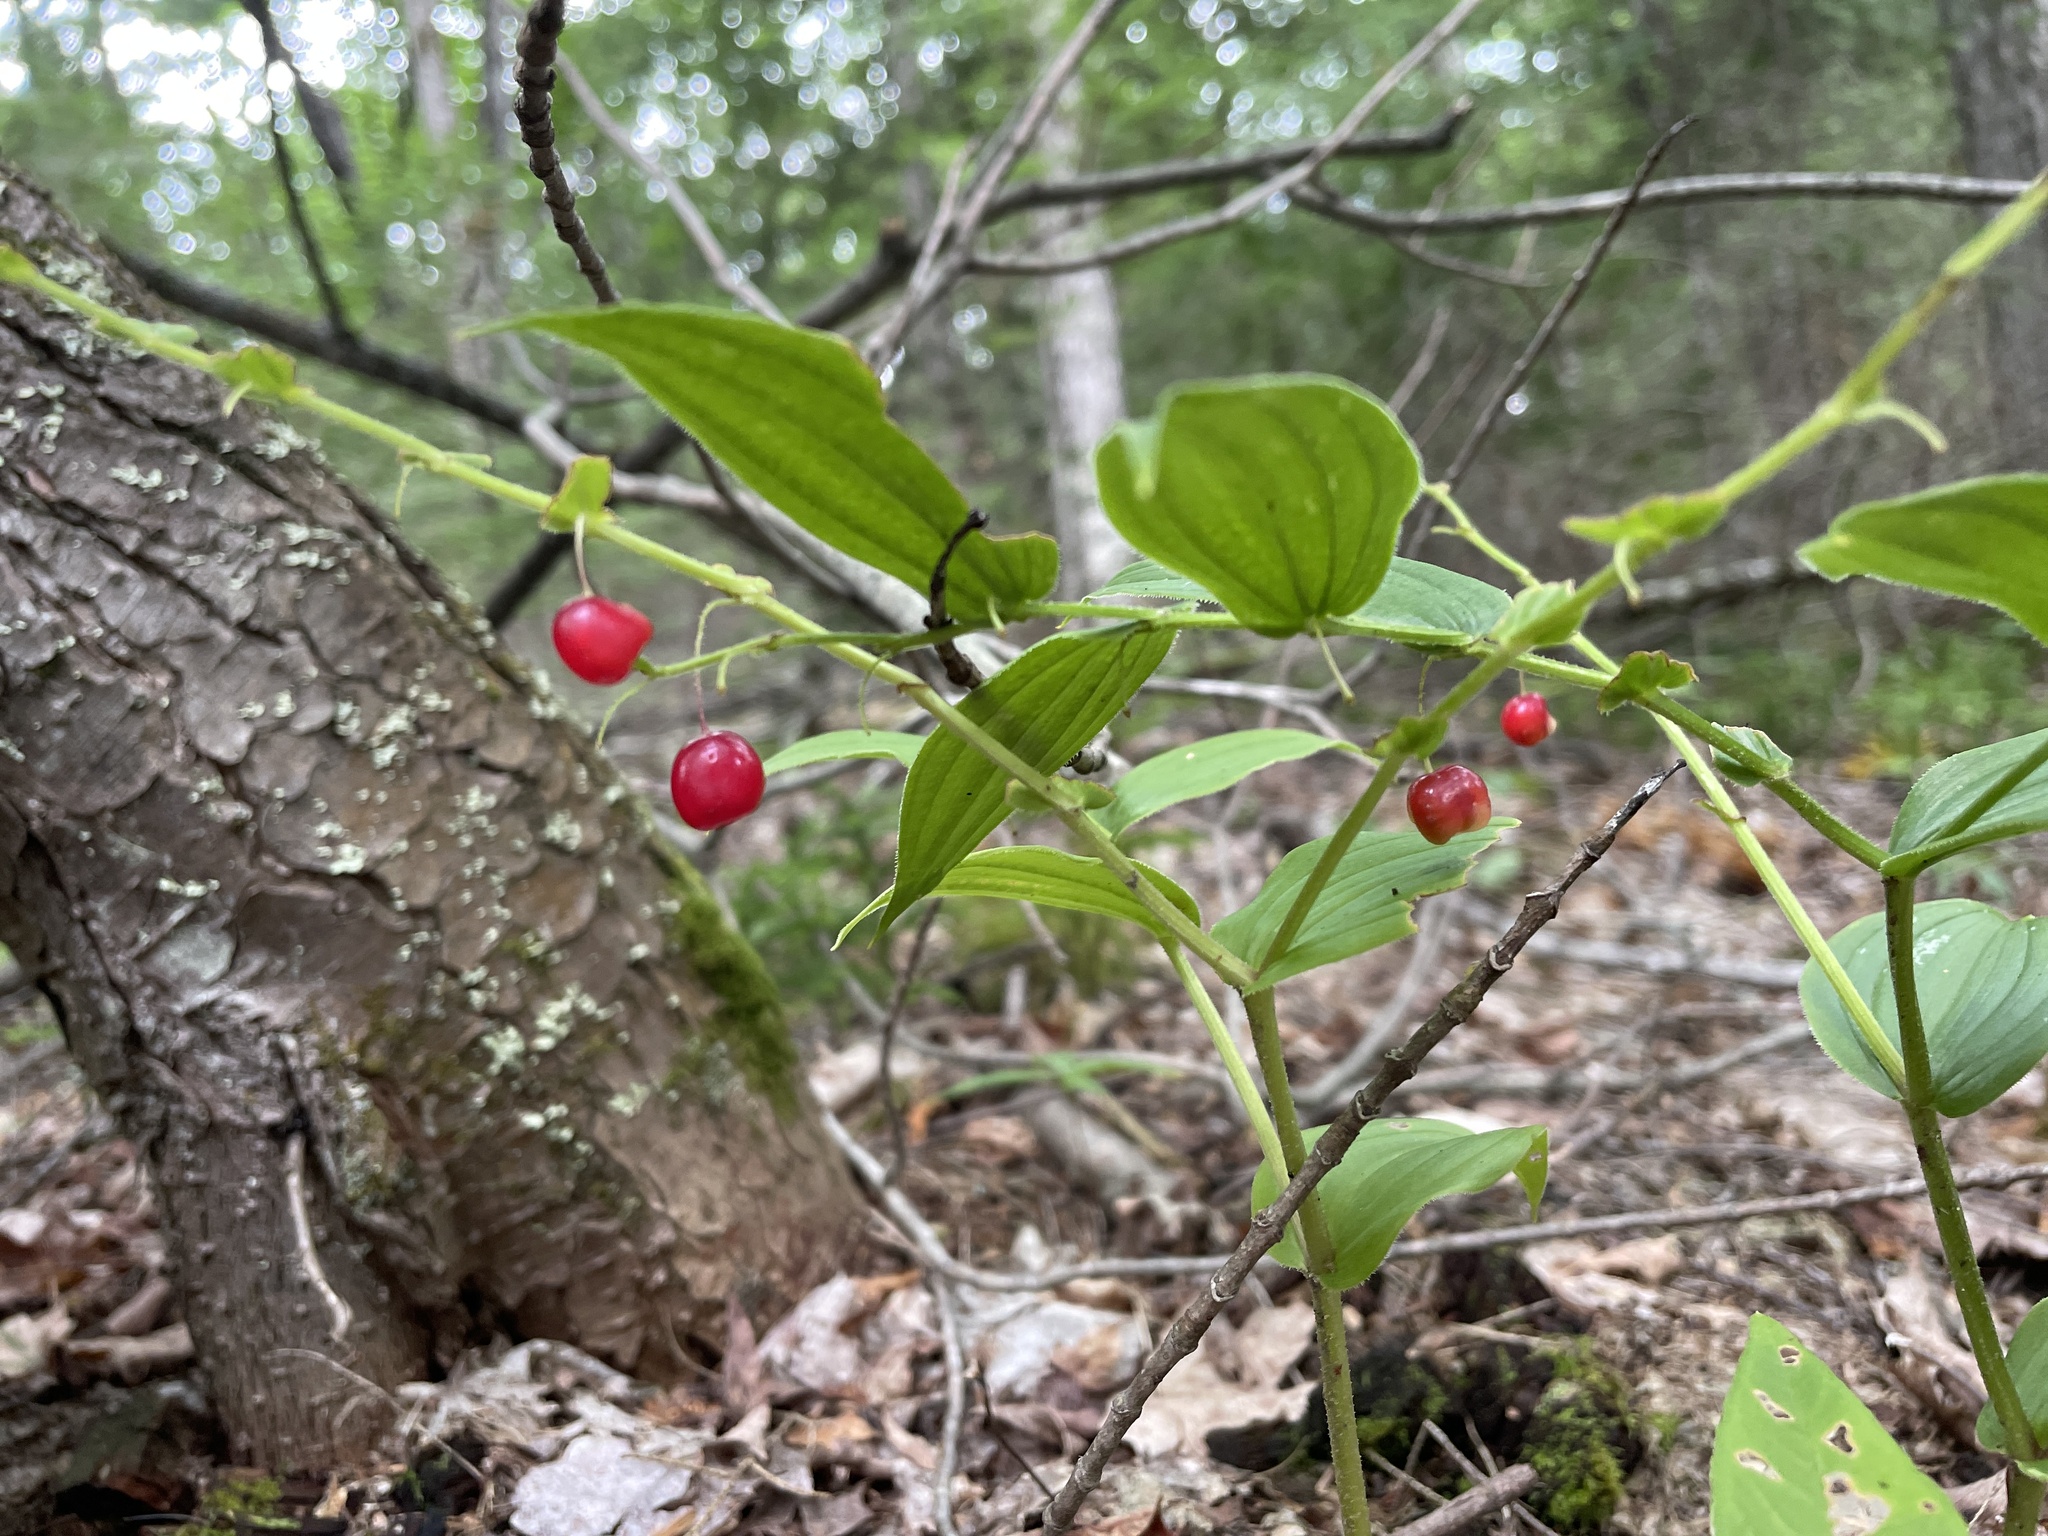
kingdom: Plantae
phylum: Tracheophyta
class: Liliopsida
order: Liliales
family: Liliaceae
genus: Streptopus
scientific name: Streptopus lanceolatus
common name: Rose mandarin
